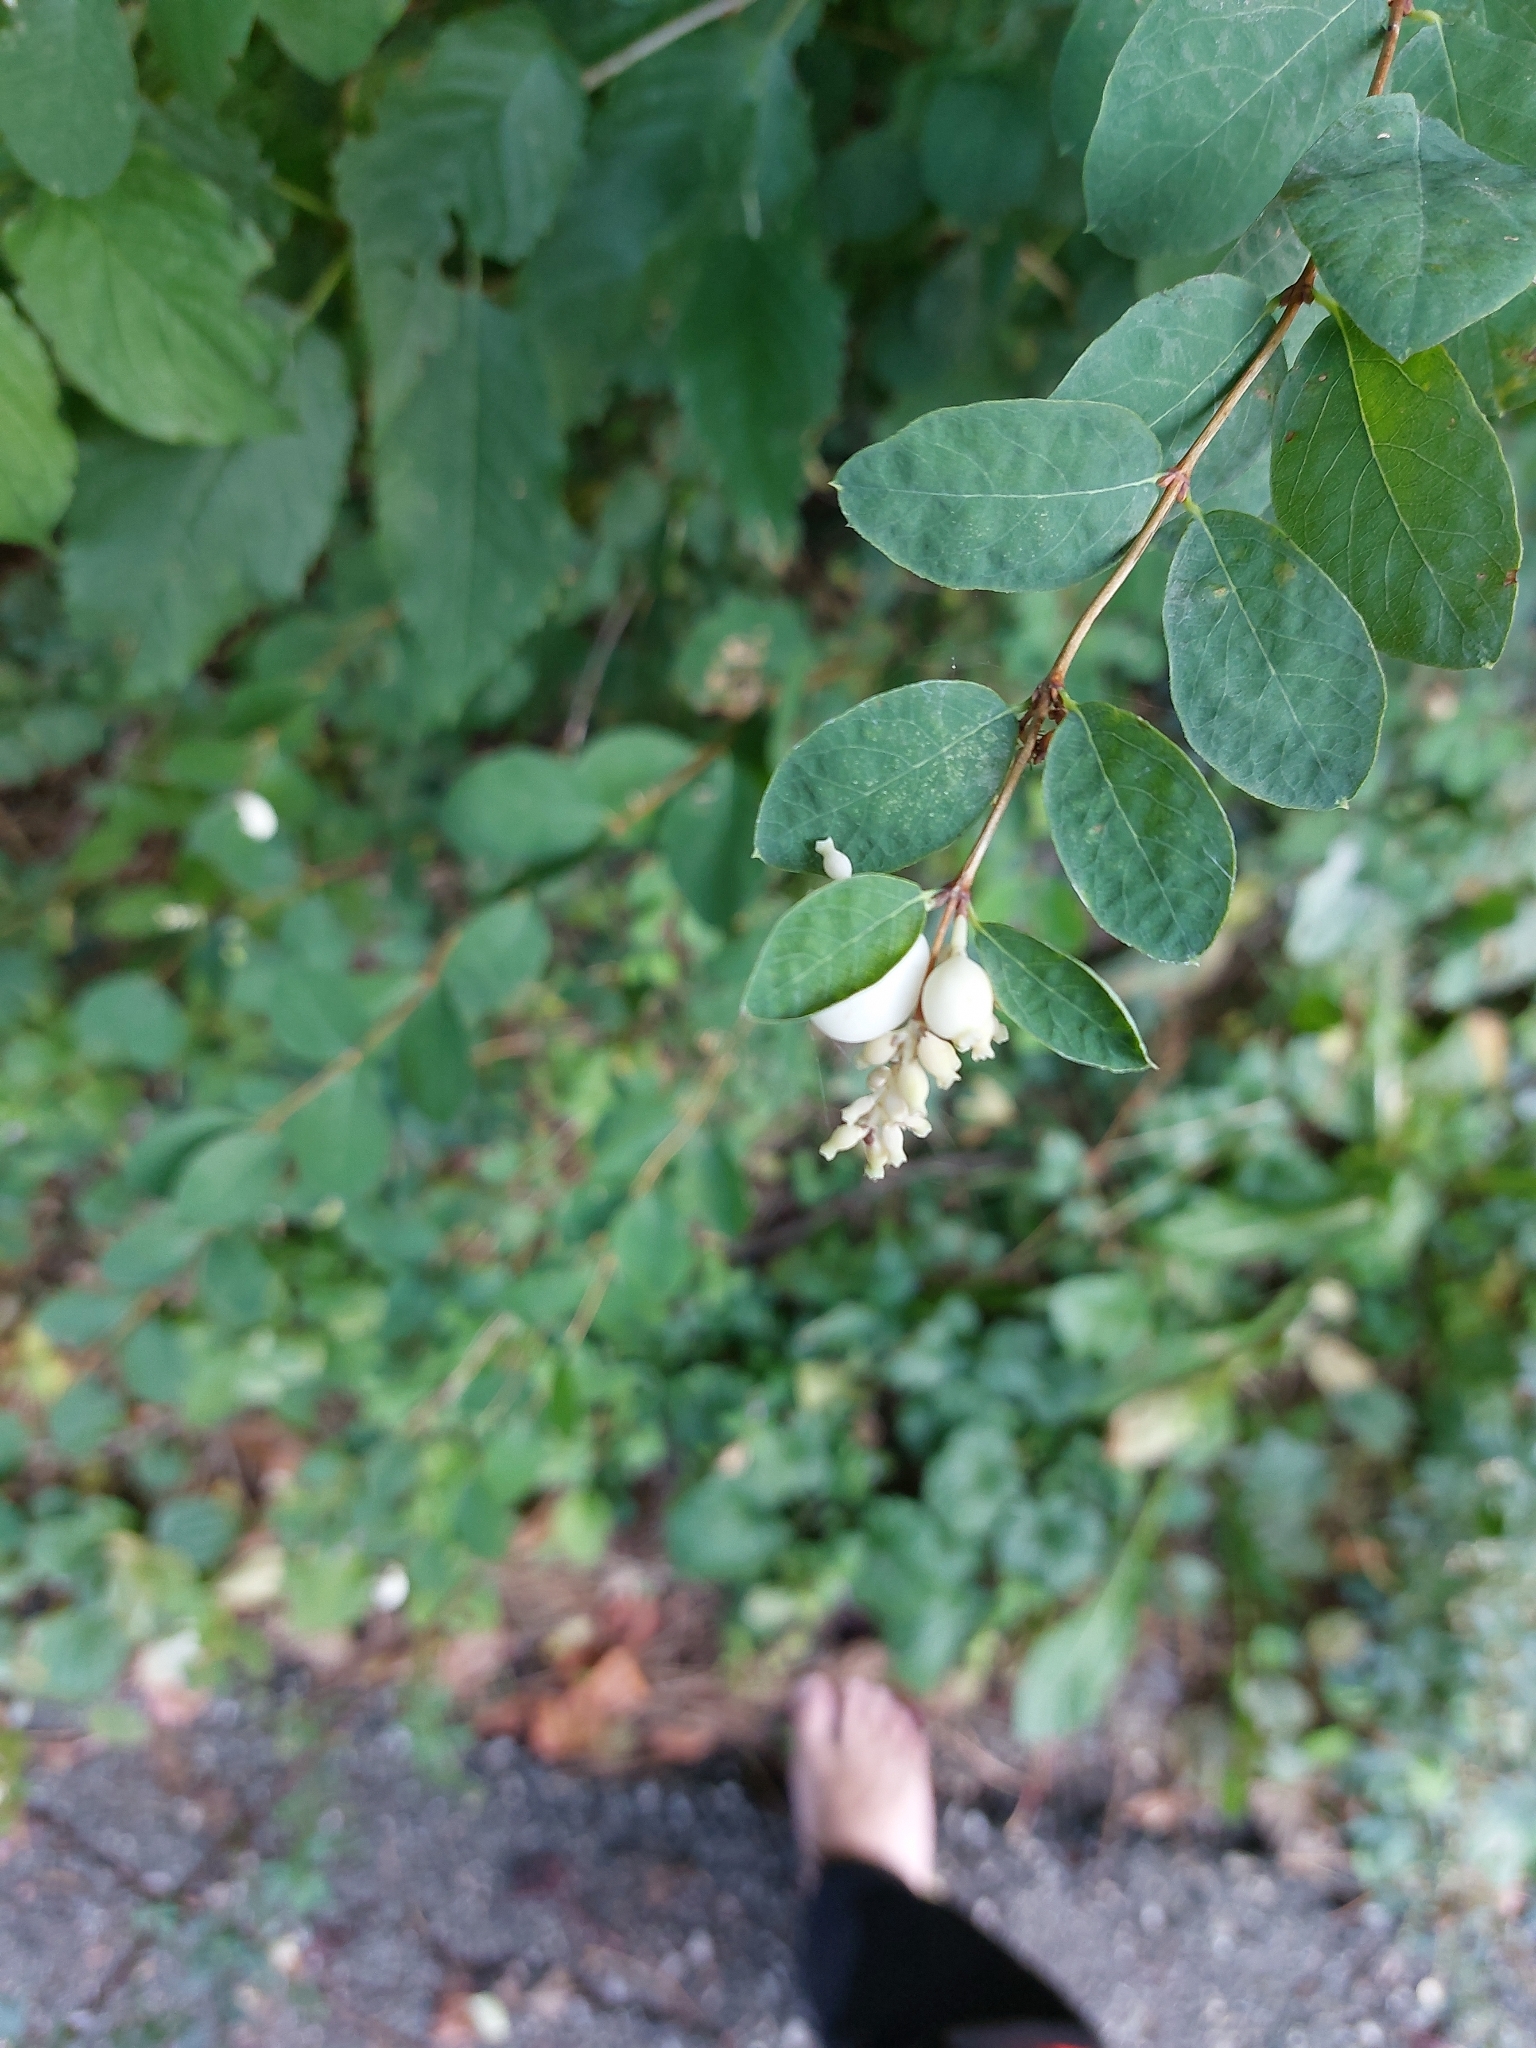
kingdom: Plantae
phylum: Tracheophyta
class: Magnoliopsida
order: Dipsacales
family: Caprifoliaceae
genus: Symphoricarpos
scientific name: Symphoricarpos albus
